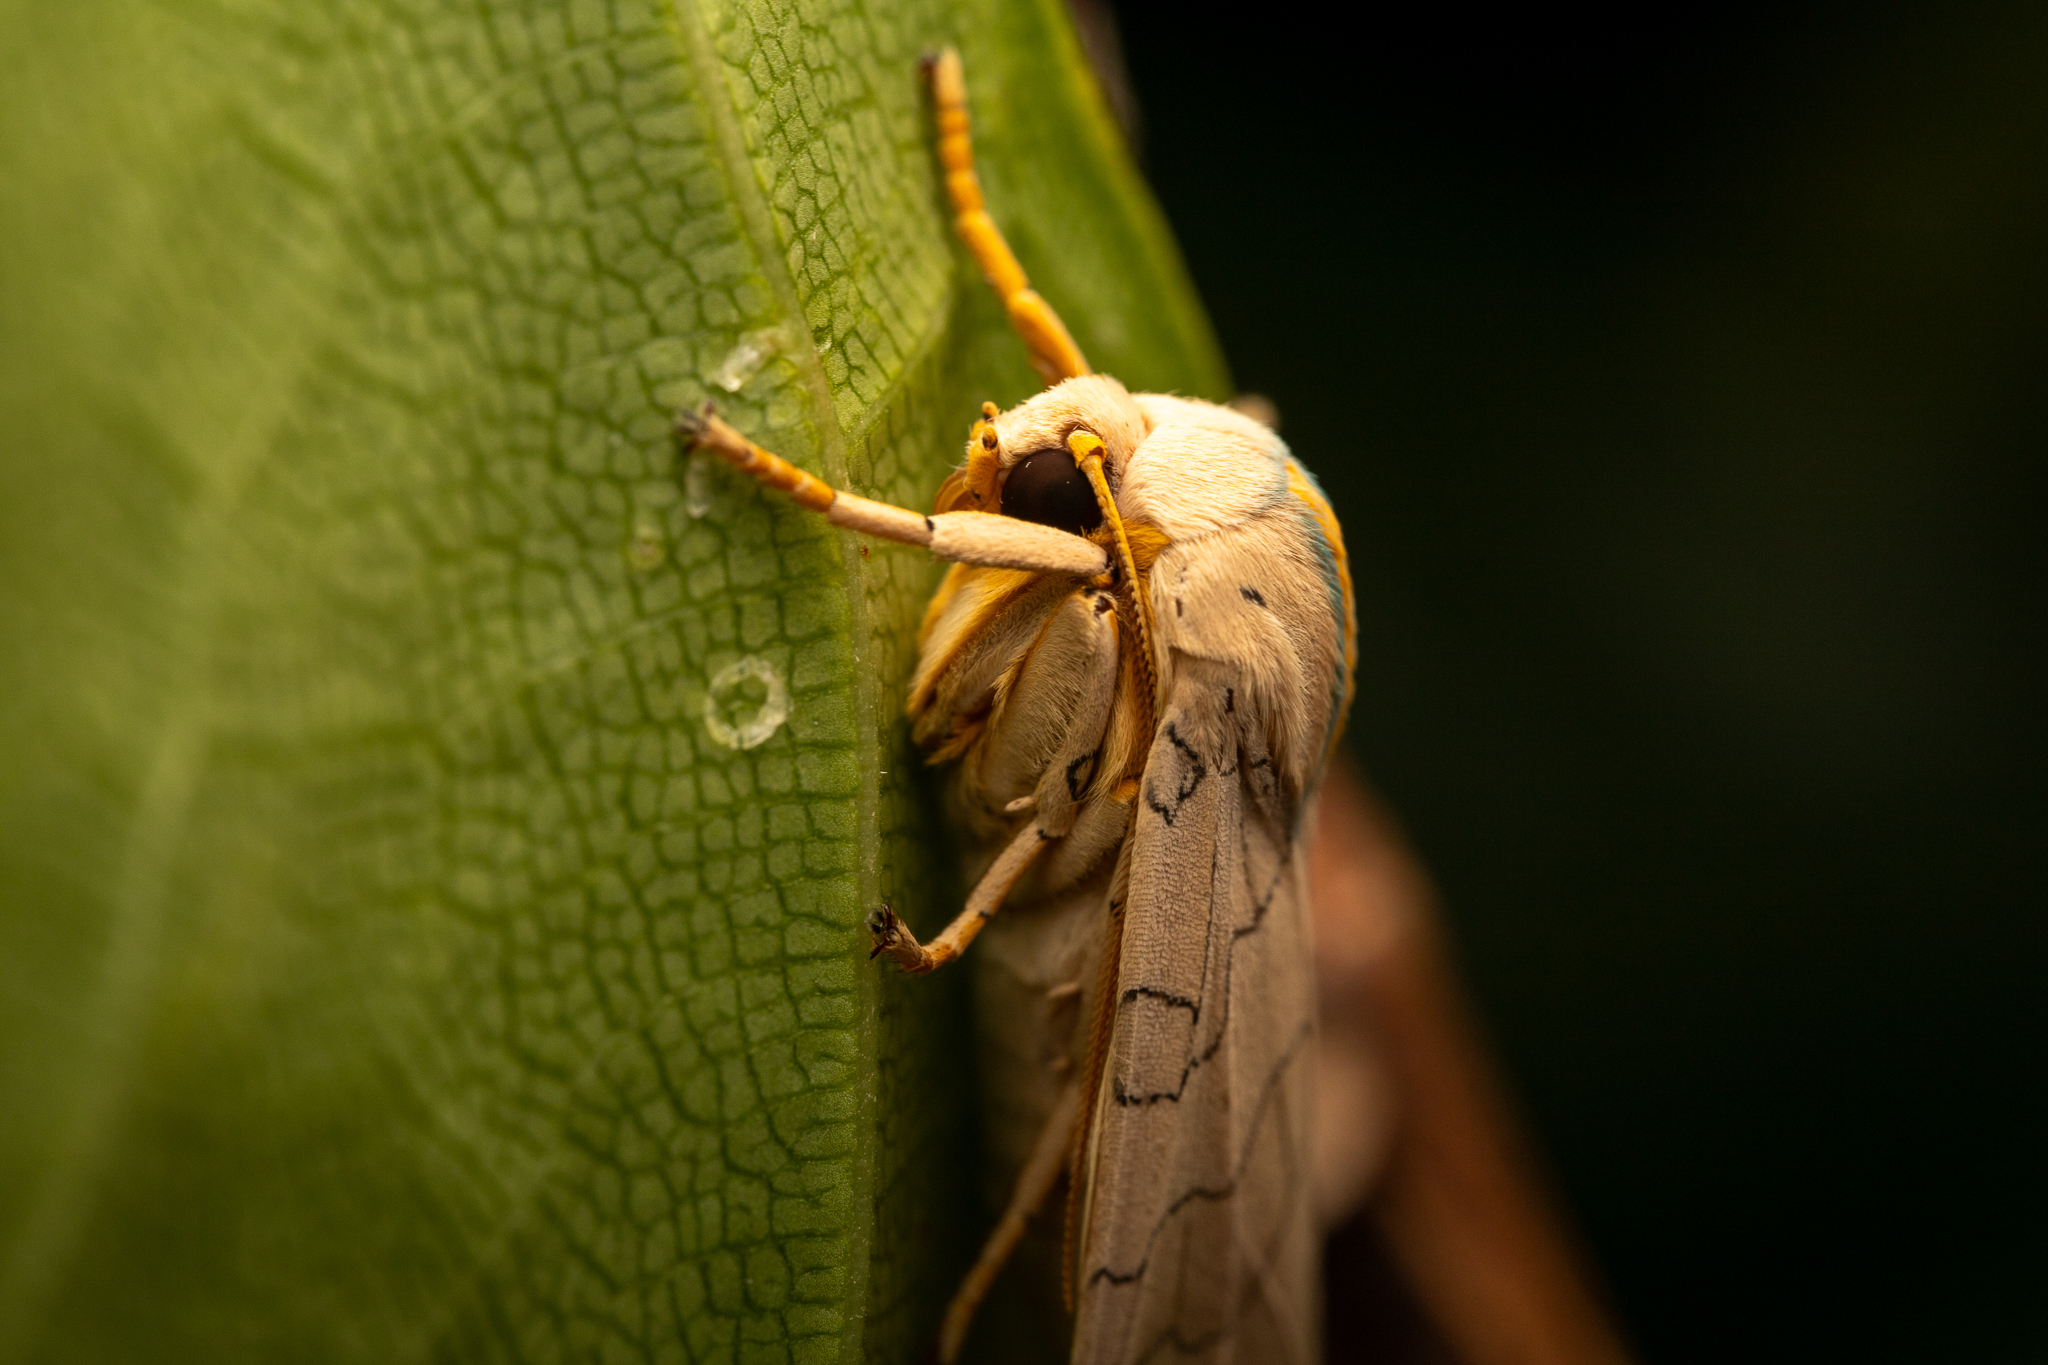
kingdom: Animalia
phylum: Arthropoda
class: Insecta
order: Lepidoptera
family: Erebidae
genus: Halysidota
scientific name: Halysidota
